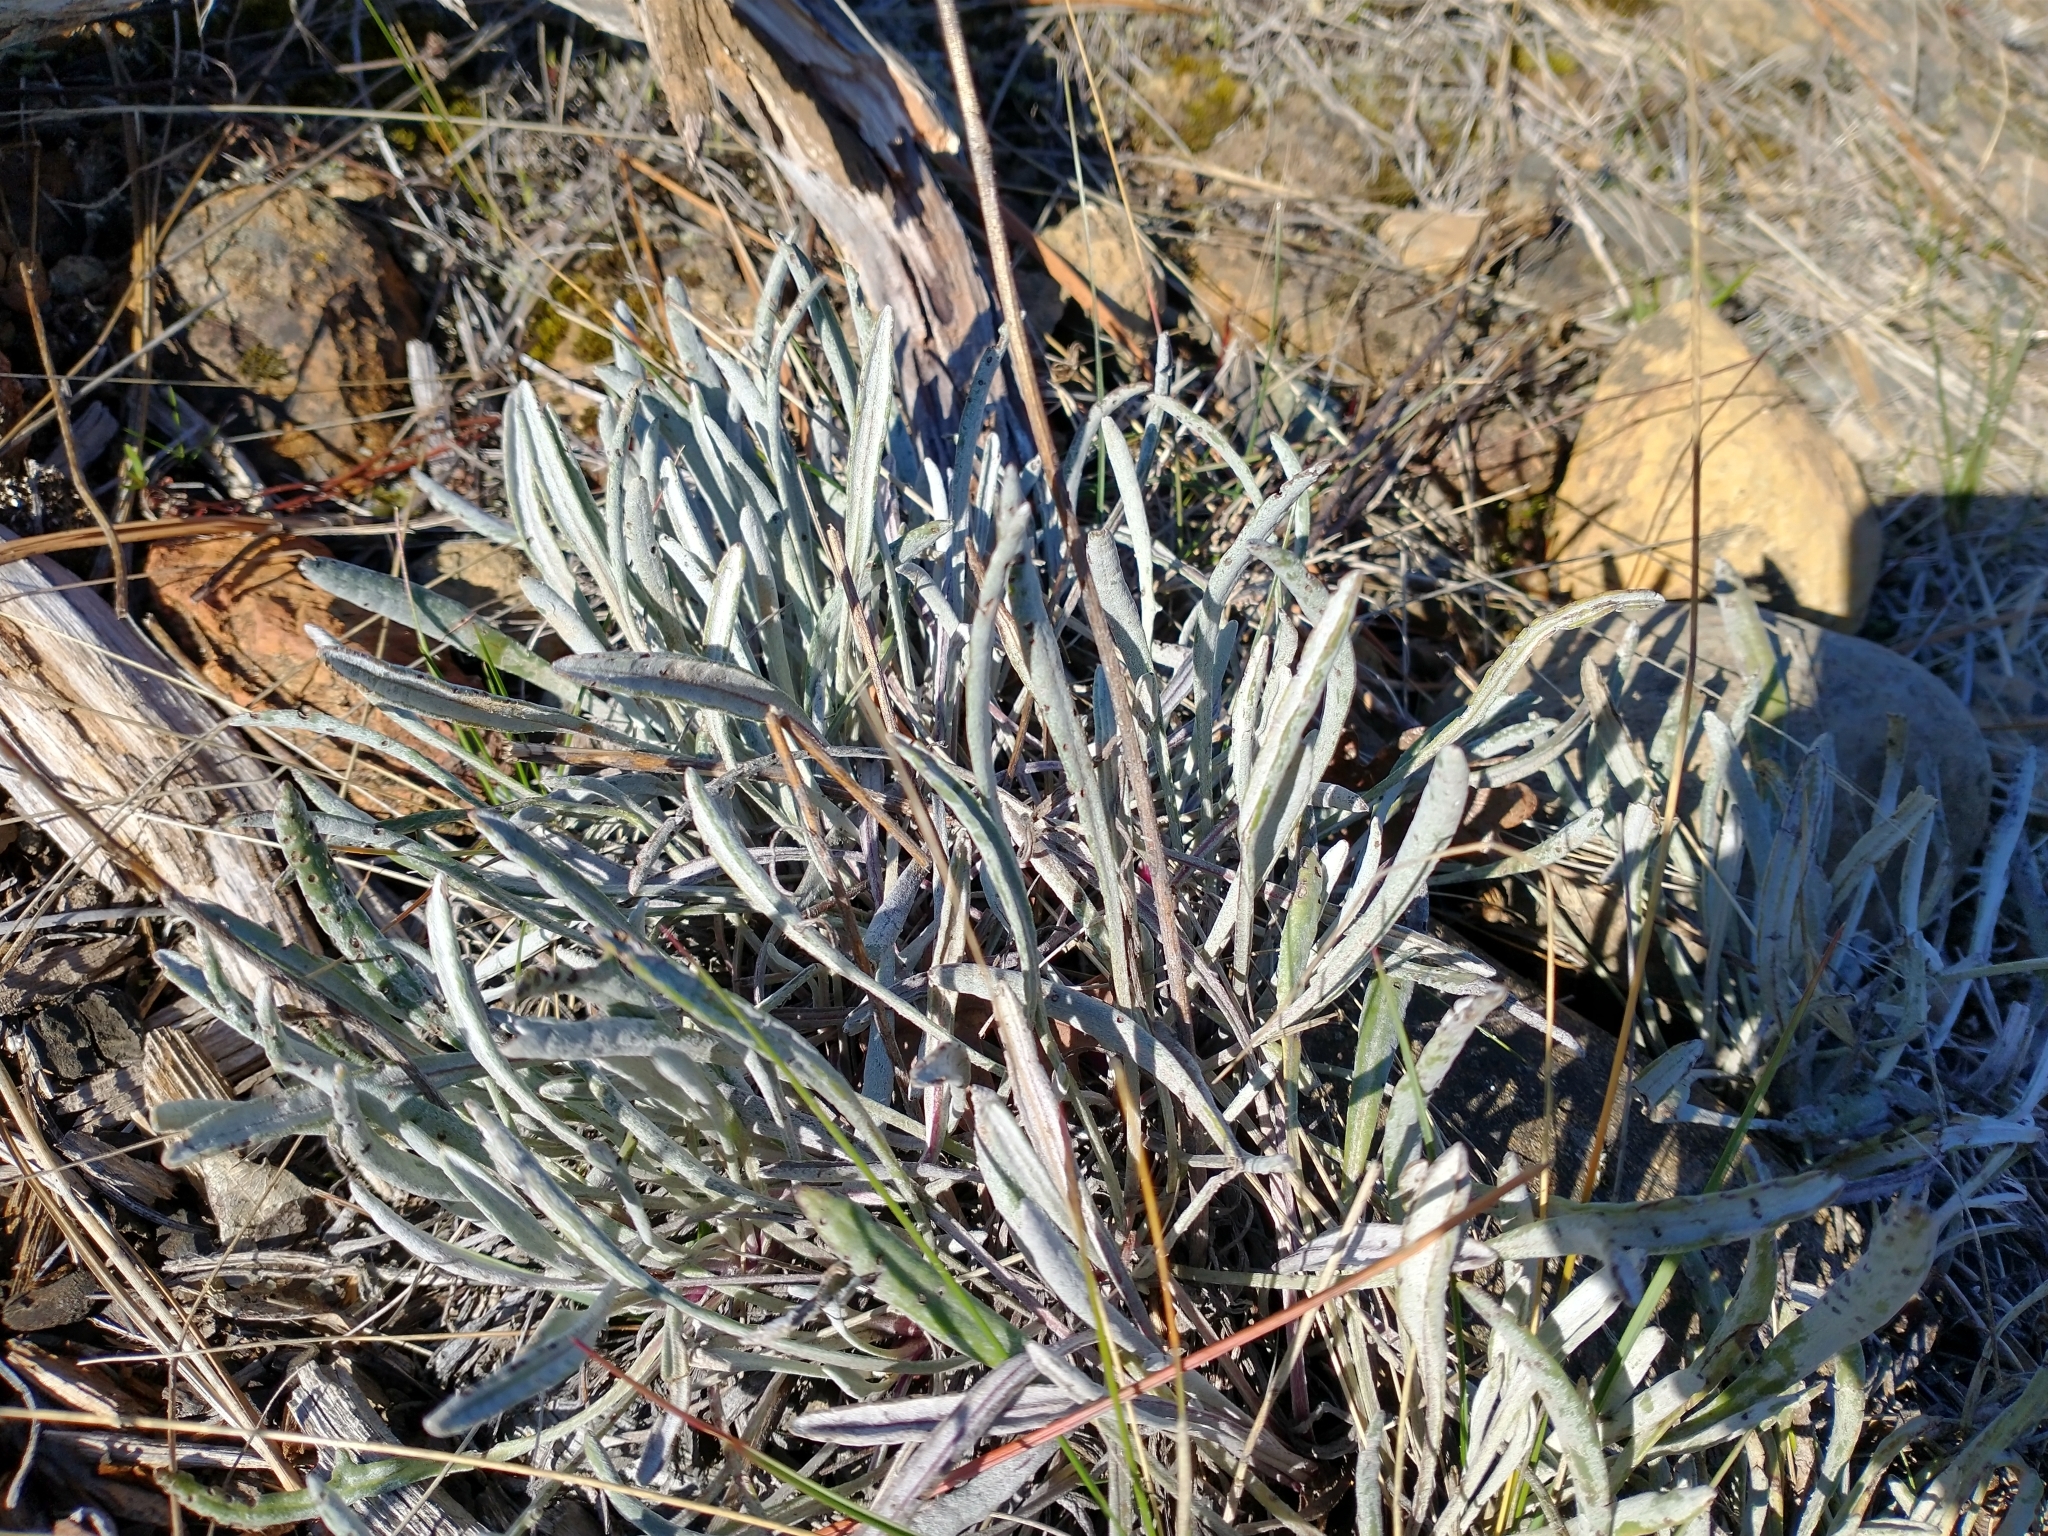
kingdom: Plantae
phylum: Tracheophyta
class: Magnoliopsida
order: Asterales
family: Asteraceae
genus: Packera
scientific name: Packera macounii
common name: Macoun's groundsel
